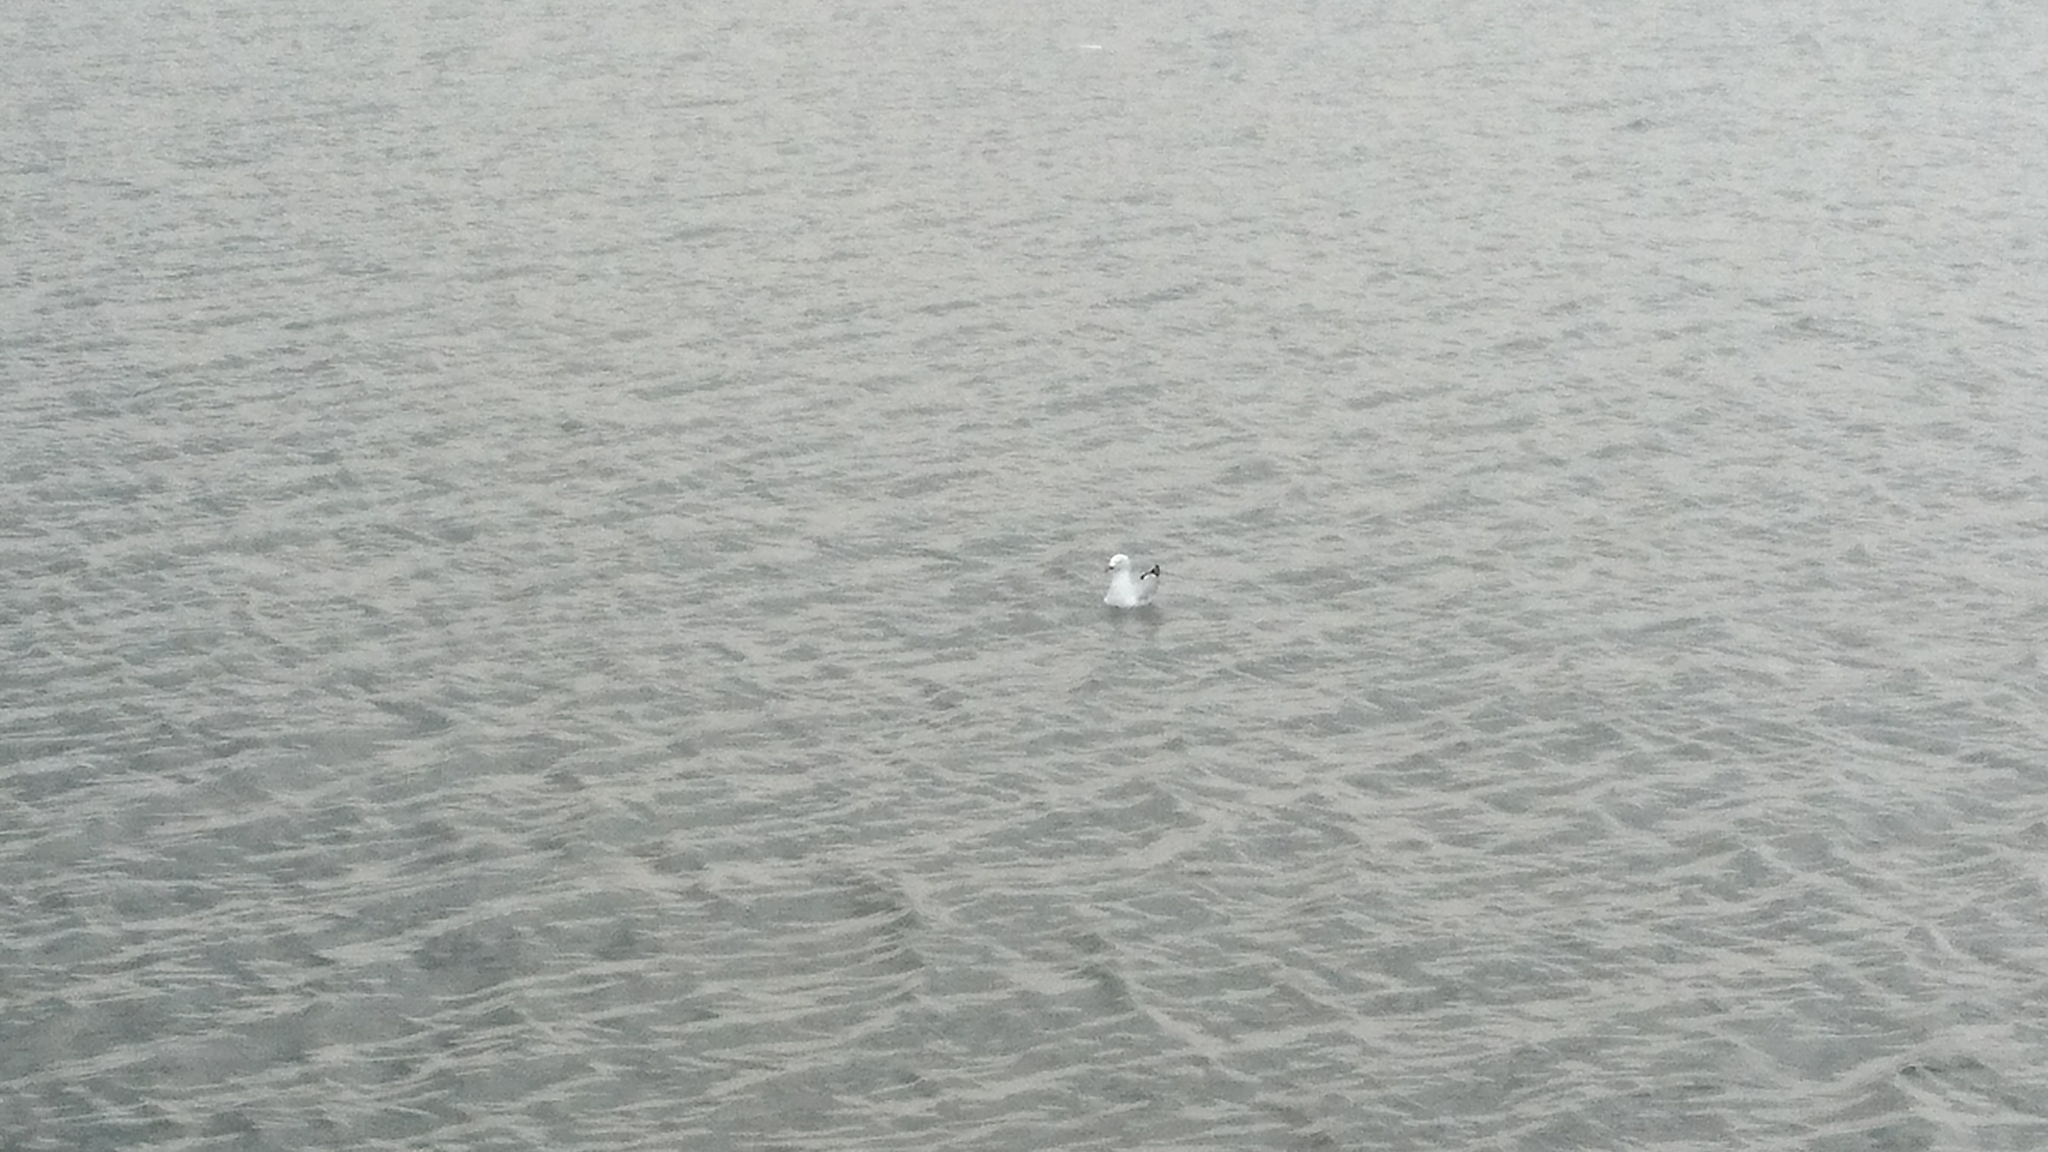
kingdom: Animalia
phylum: Chordata
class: Aves
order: Charadriiformes
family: Laridae
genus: Chroicocephalus
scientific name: Chroicocephalus novaehollandiae
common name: Silver gull
